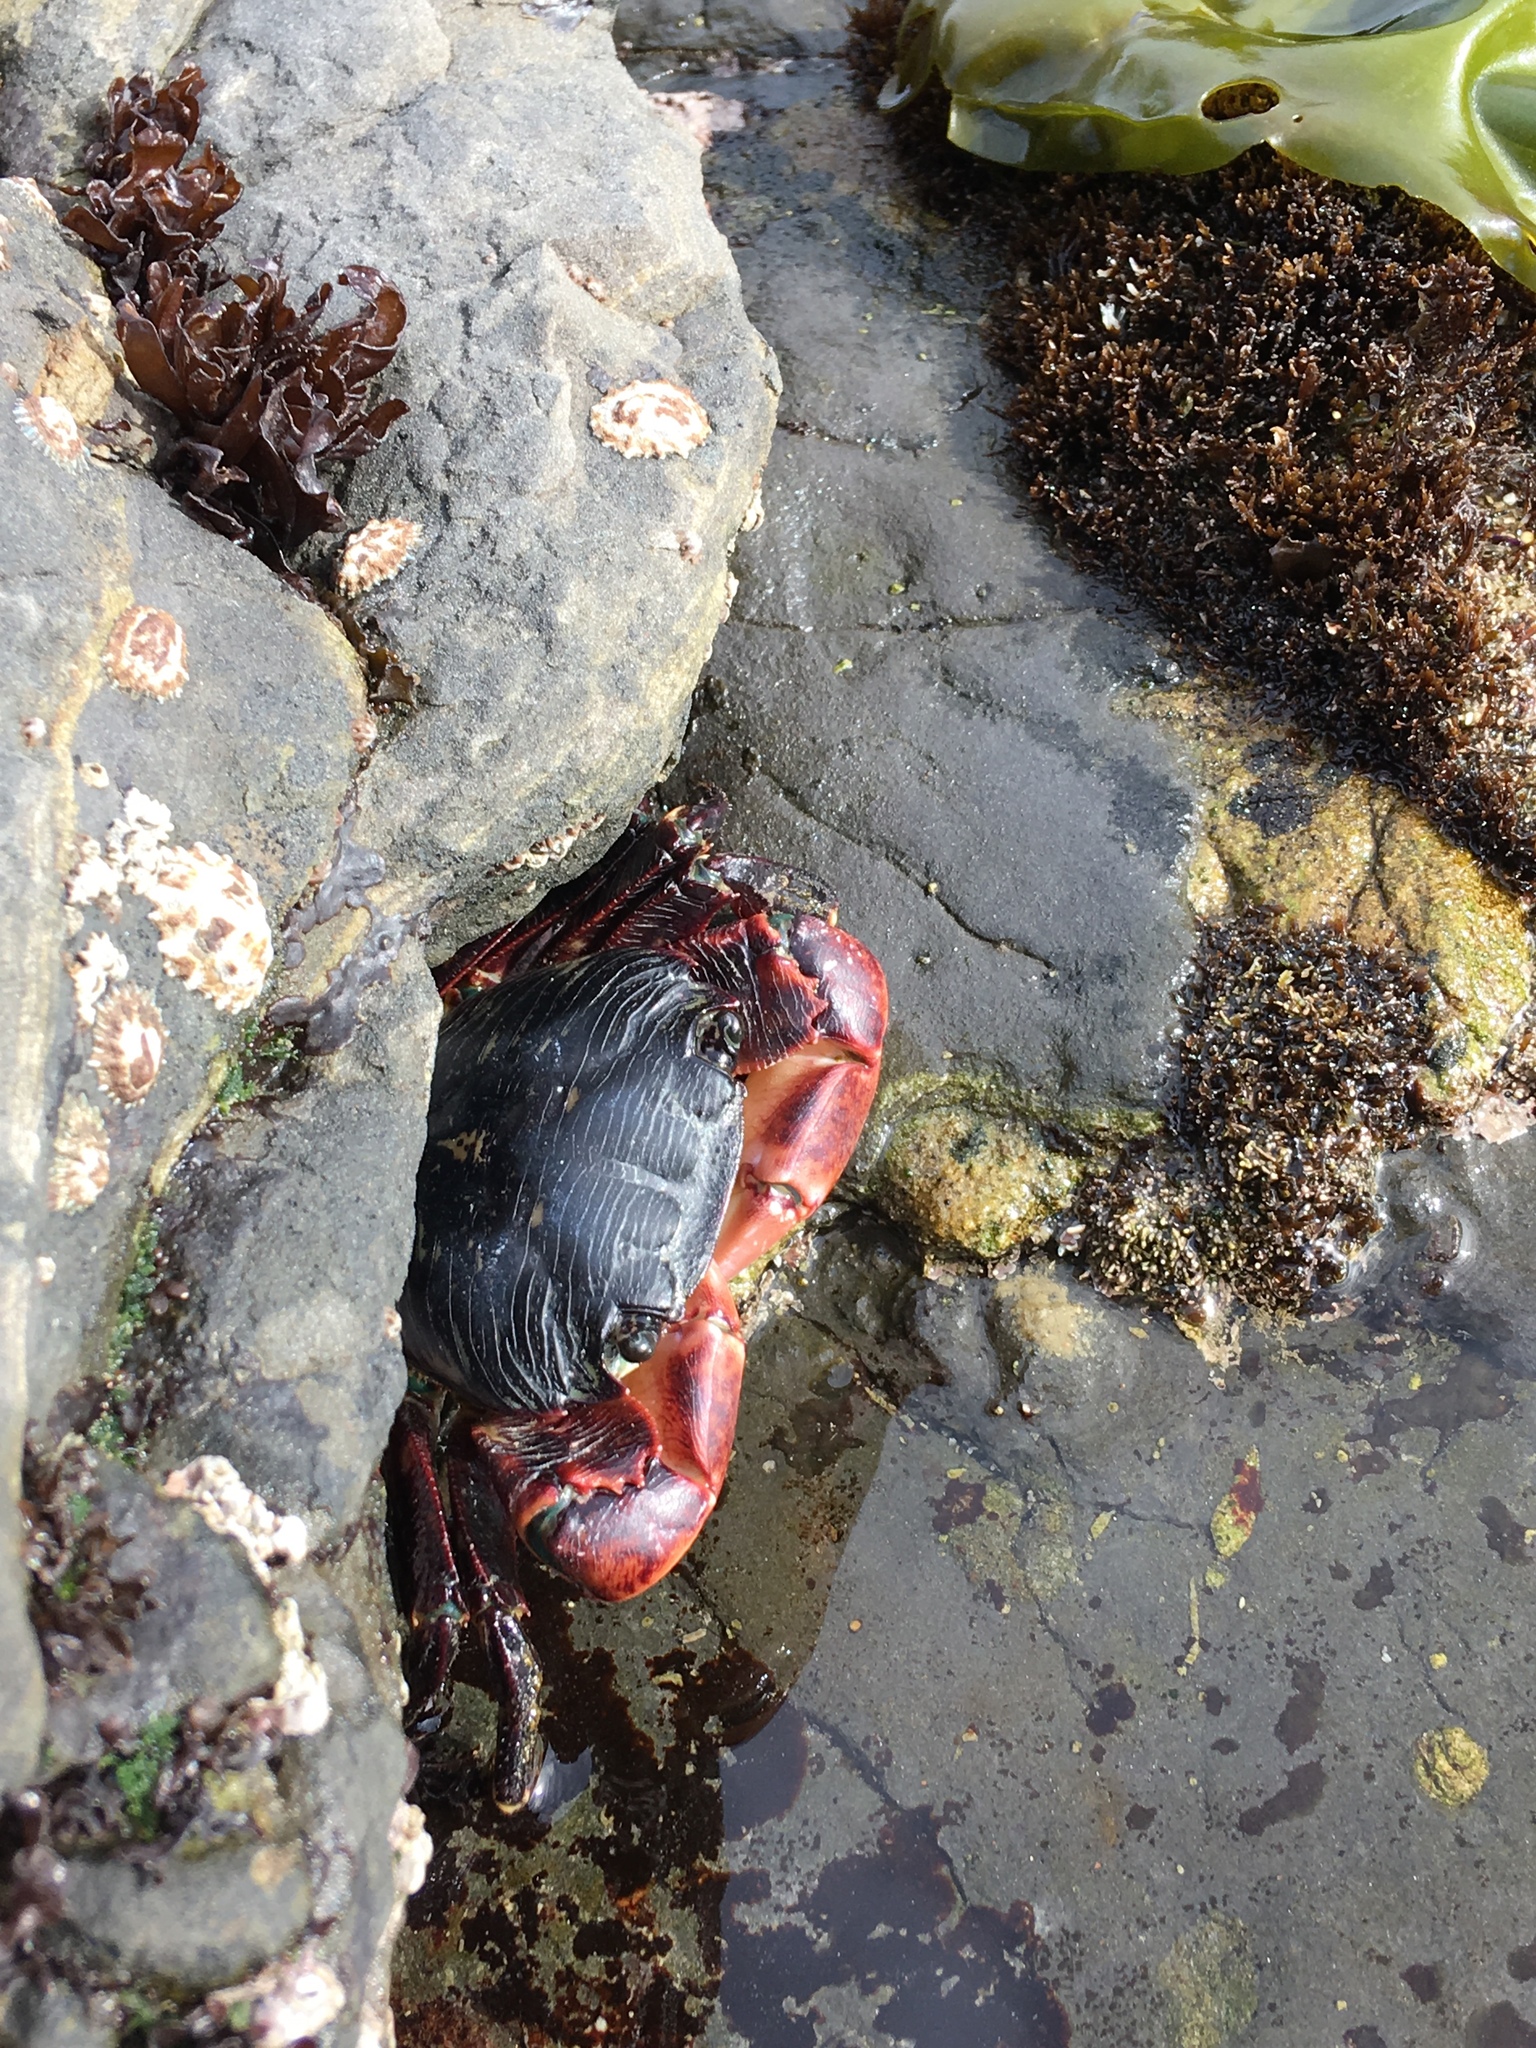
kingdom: Animalia
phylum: Arthropoda
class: Malacostraca
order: Decapoda
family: Grapsidae
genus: Pachygrapsus
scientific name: Pachygrapsus crassipes
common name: Striped shore crab
